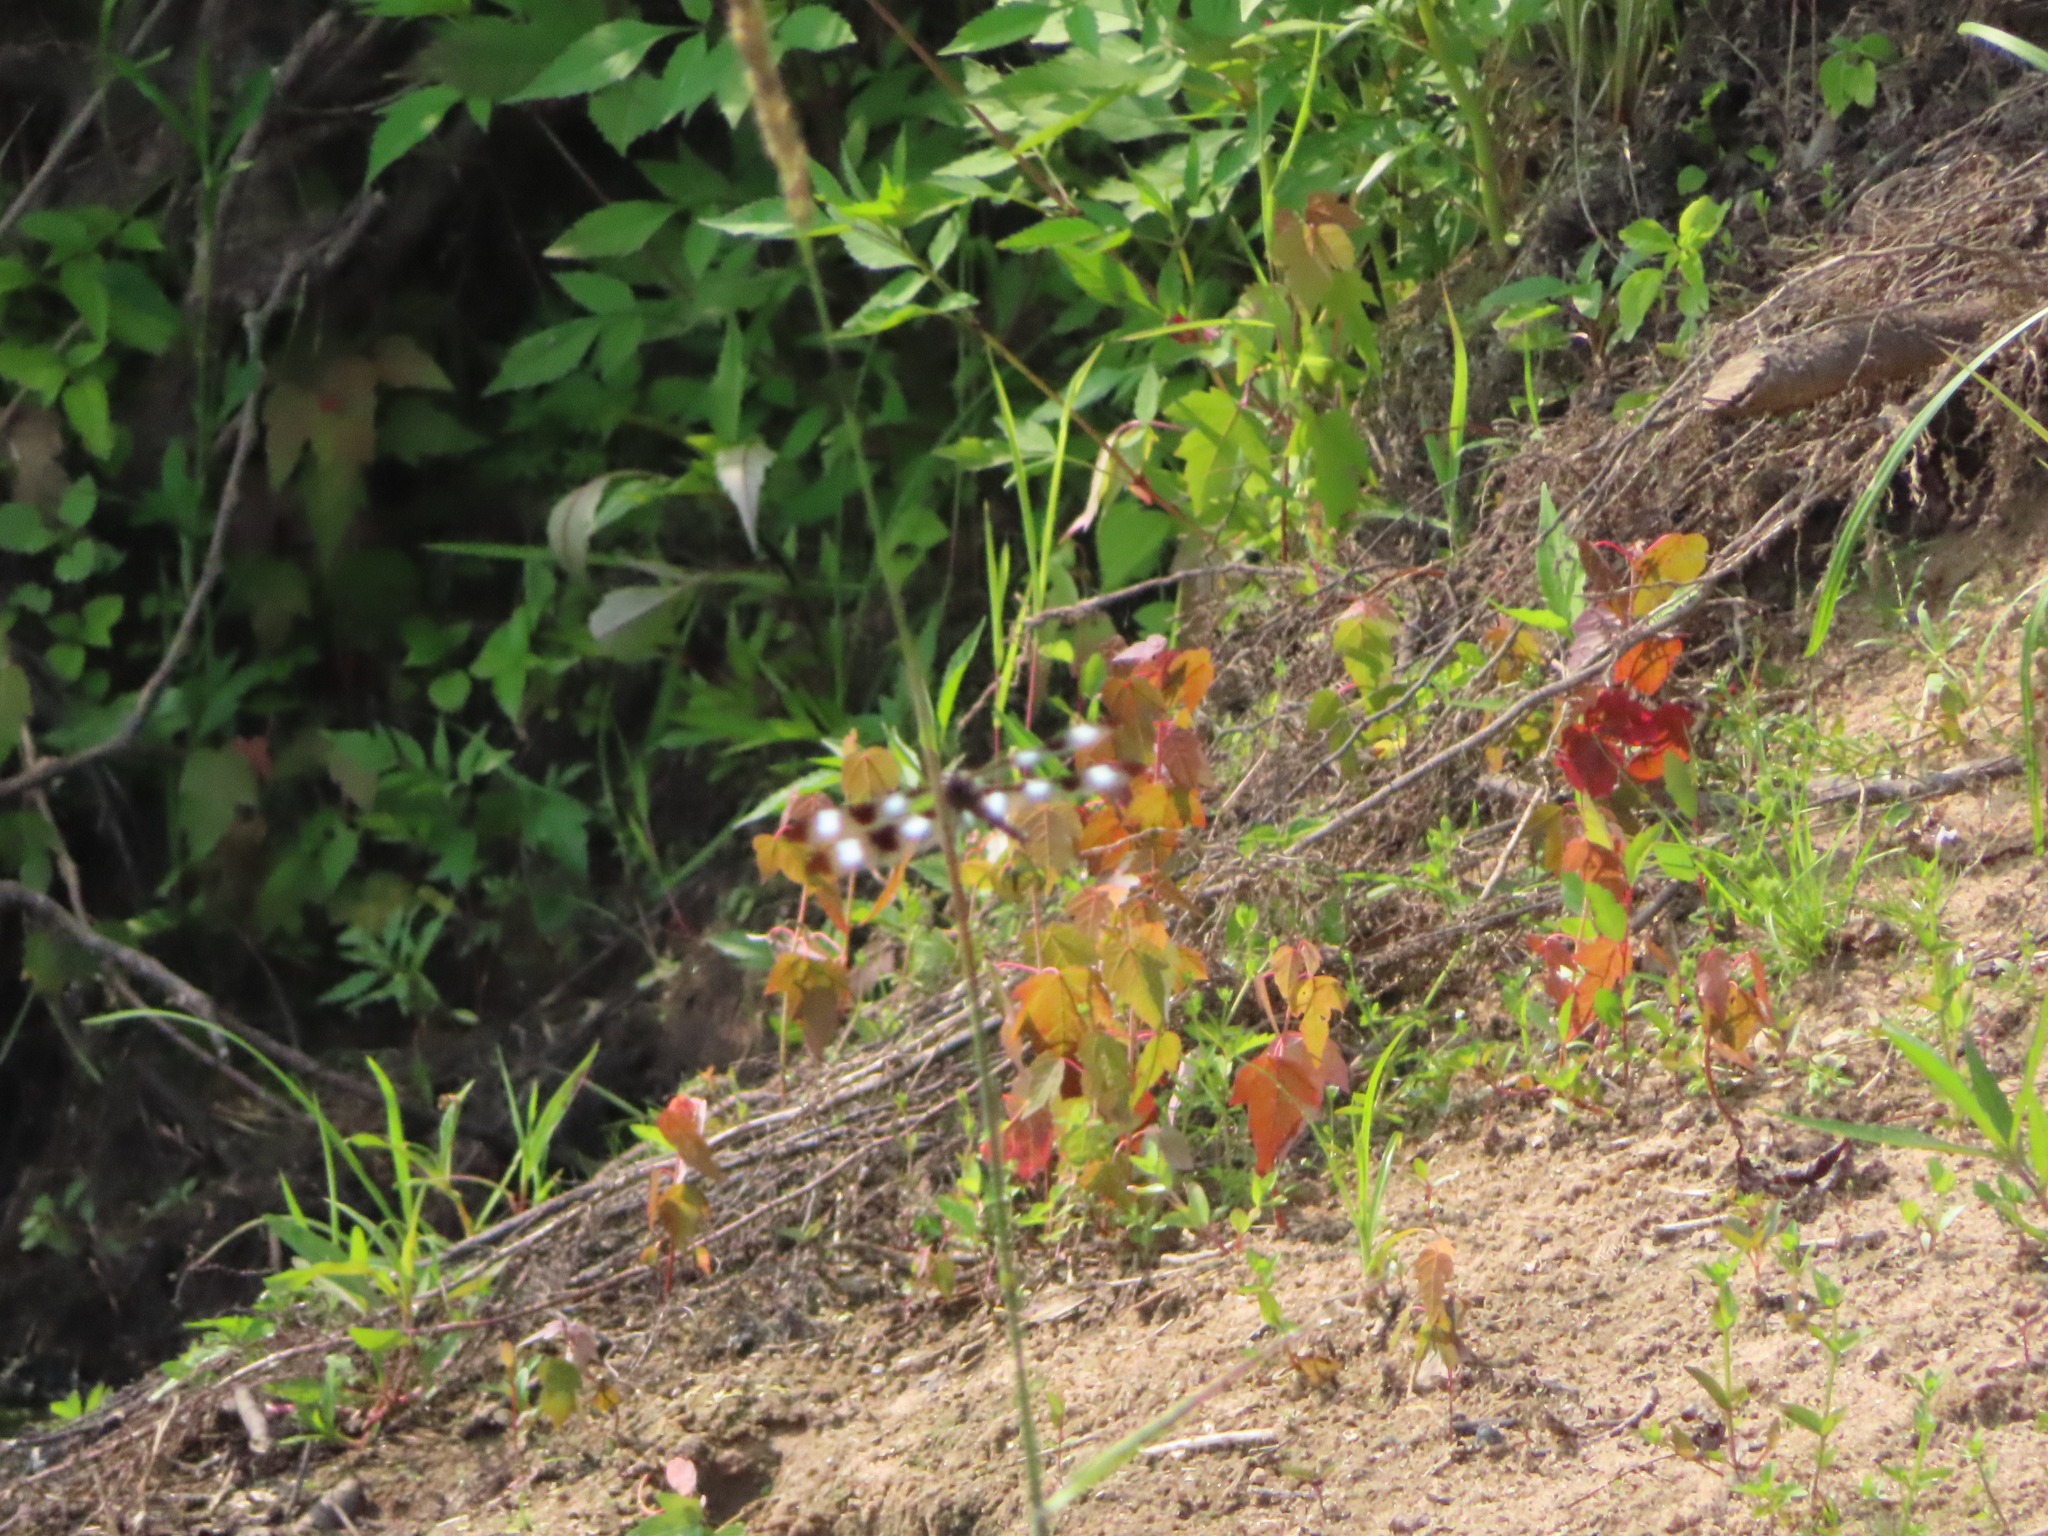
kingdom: Animalia
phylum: Arthropoda
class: Insecta
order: Odonata
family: Libellulidae
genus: Libellula
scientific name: Libellula pulchella
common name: Twelve-spotted skimmer
